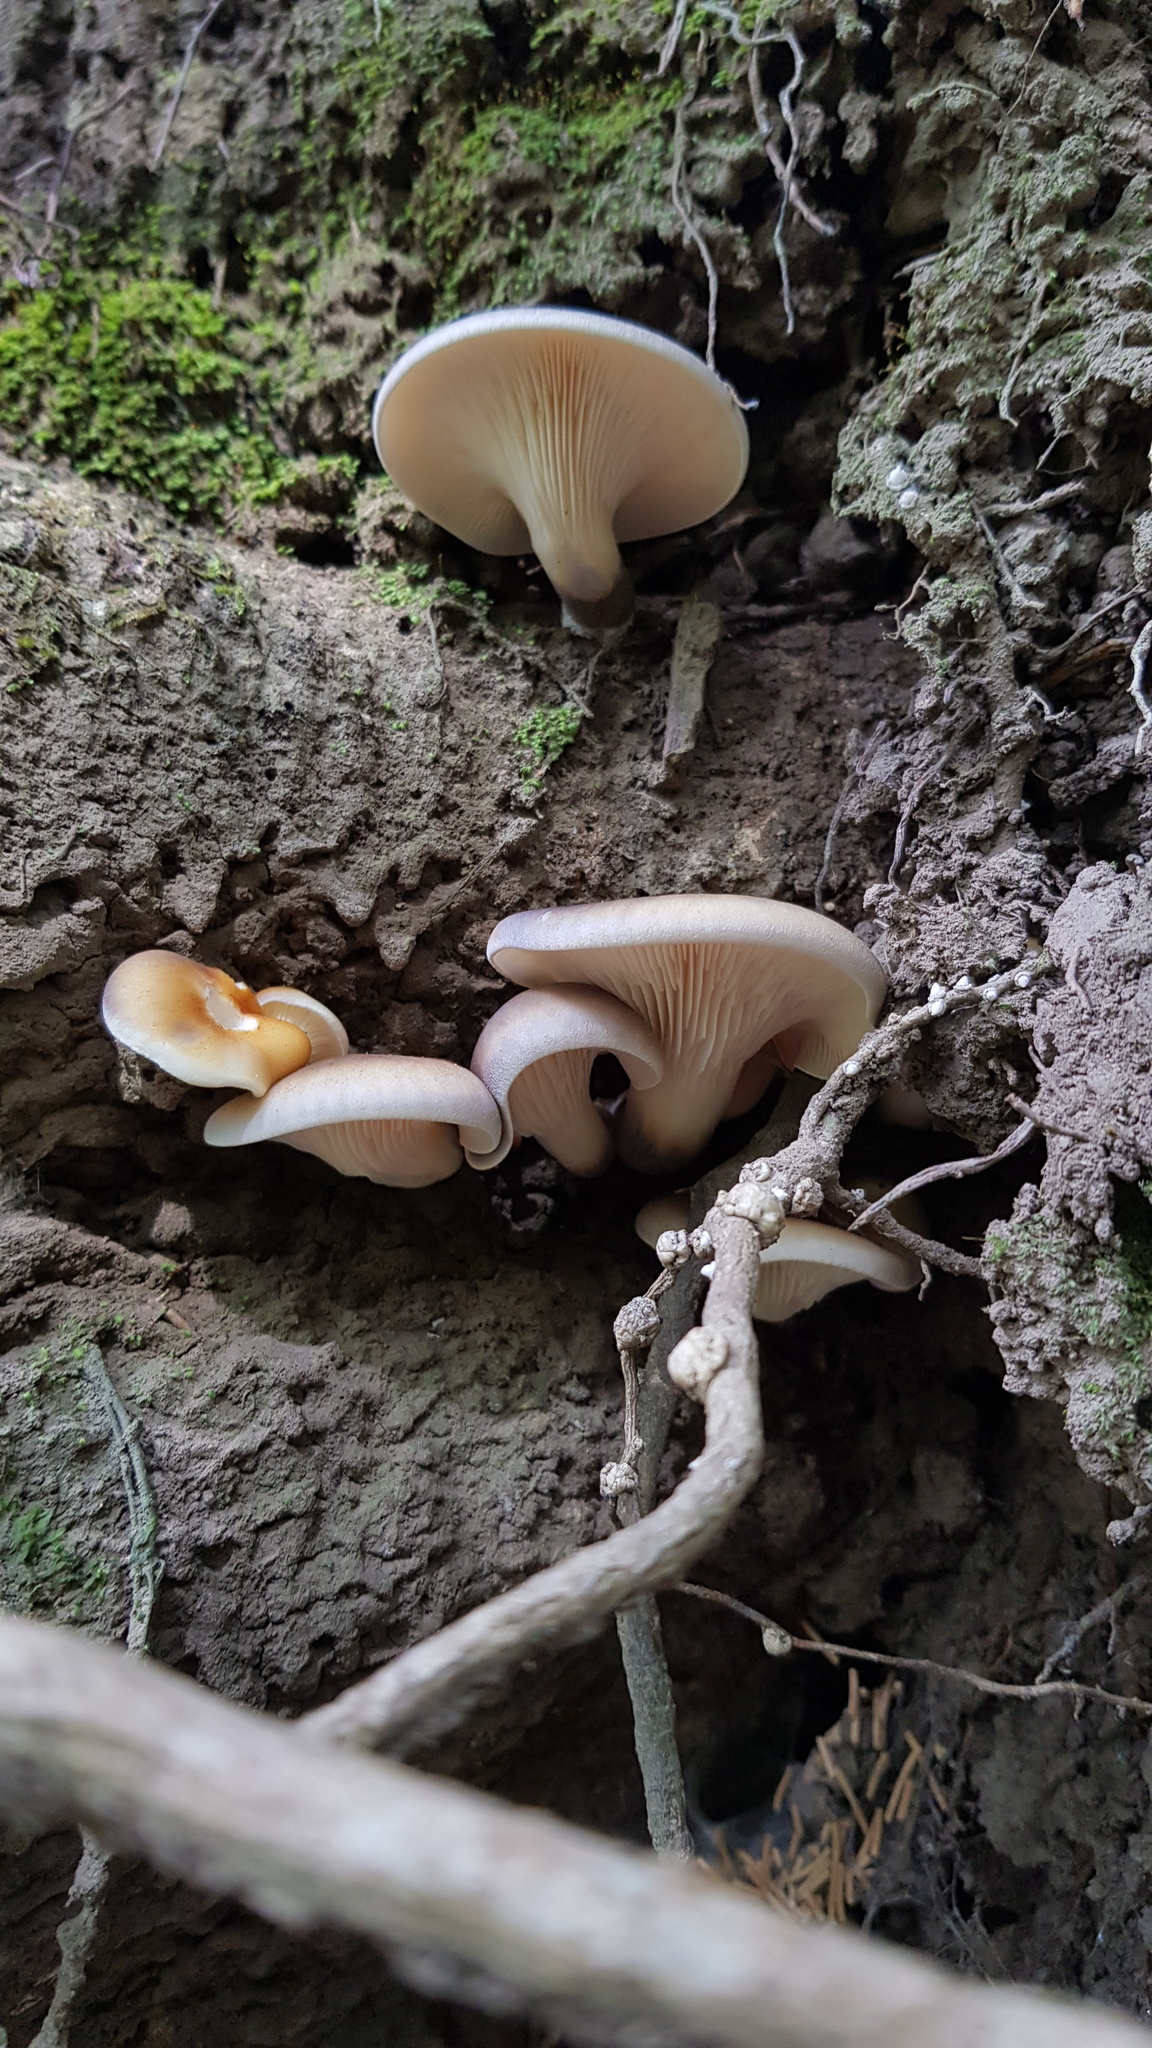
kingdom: Fungi
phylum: Basidiomycota
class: Agaricomycetes
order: Agaricales
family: Omphalotaceae
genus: Omphalotus
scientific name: Omphalotus nidiformis
